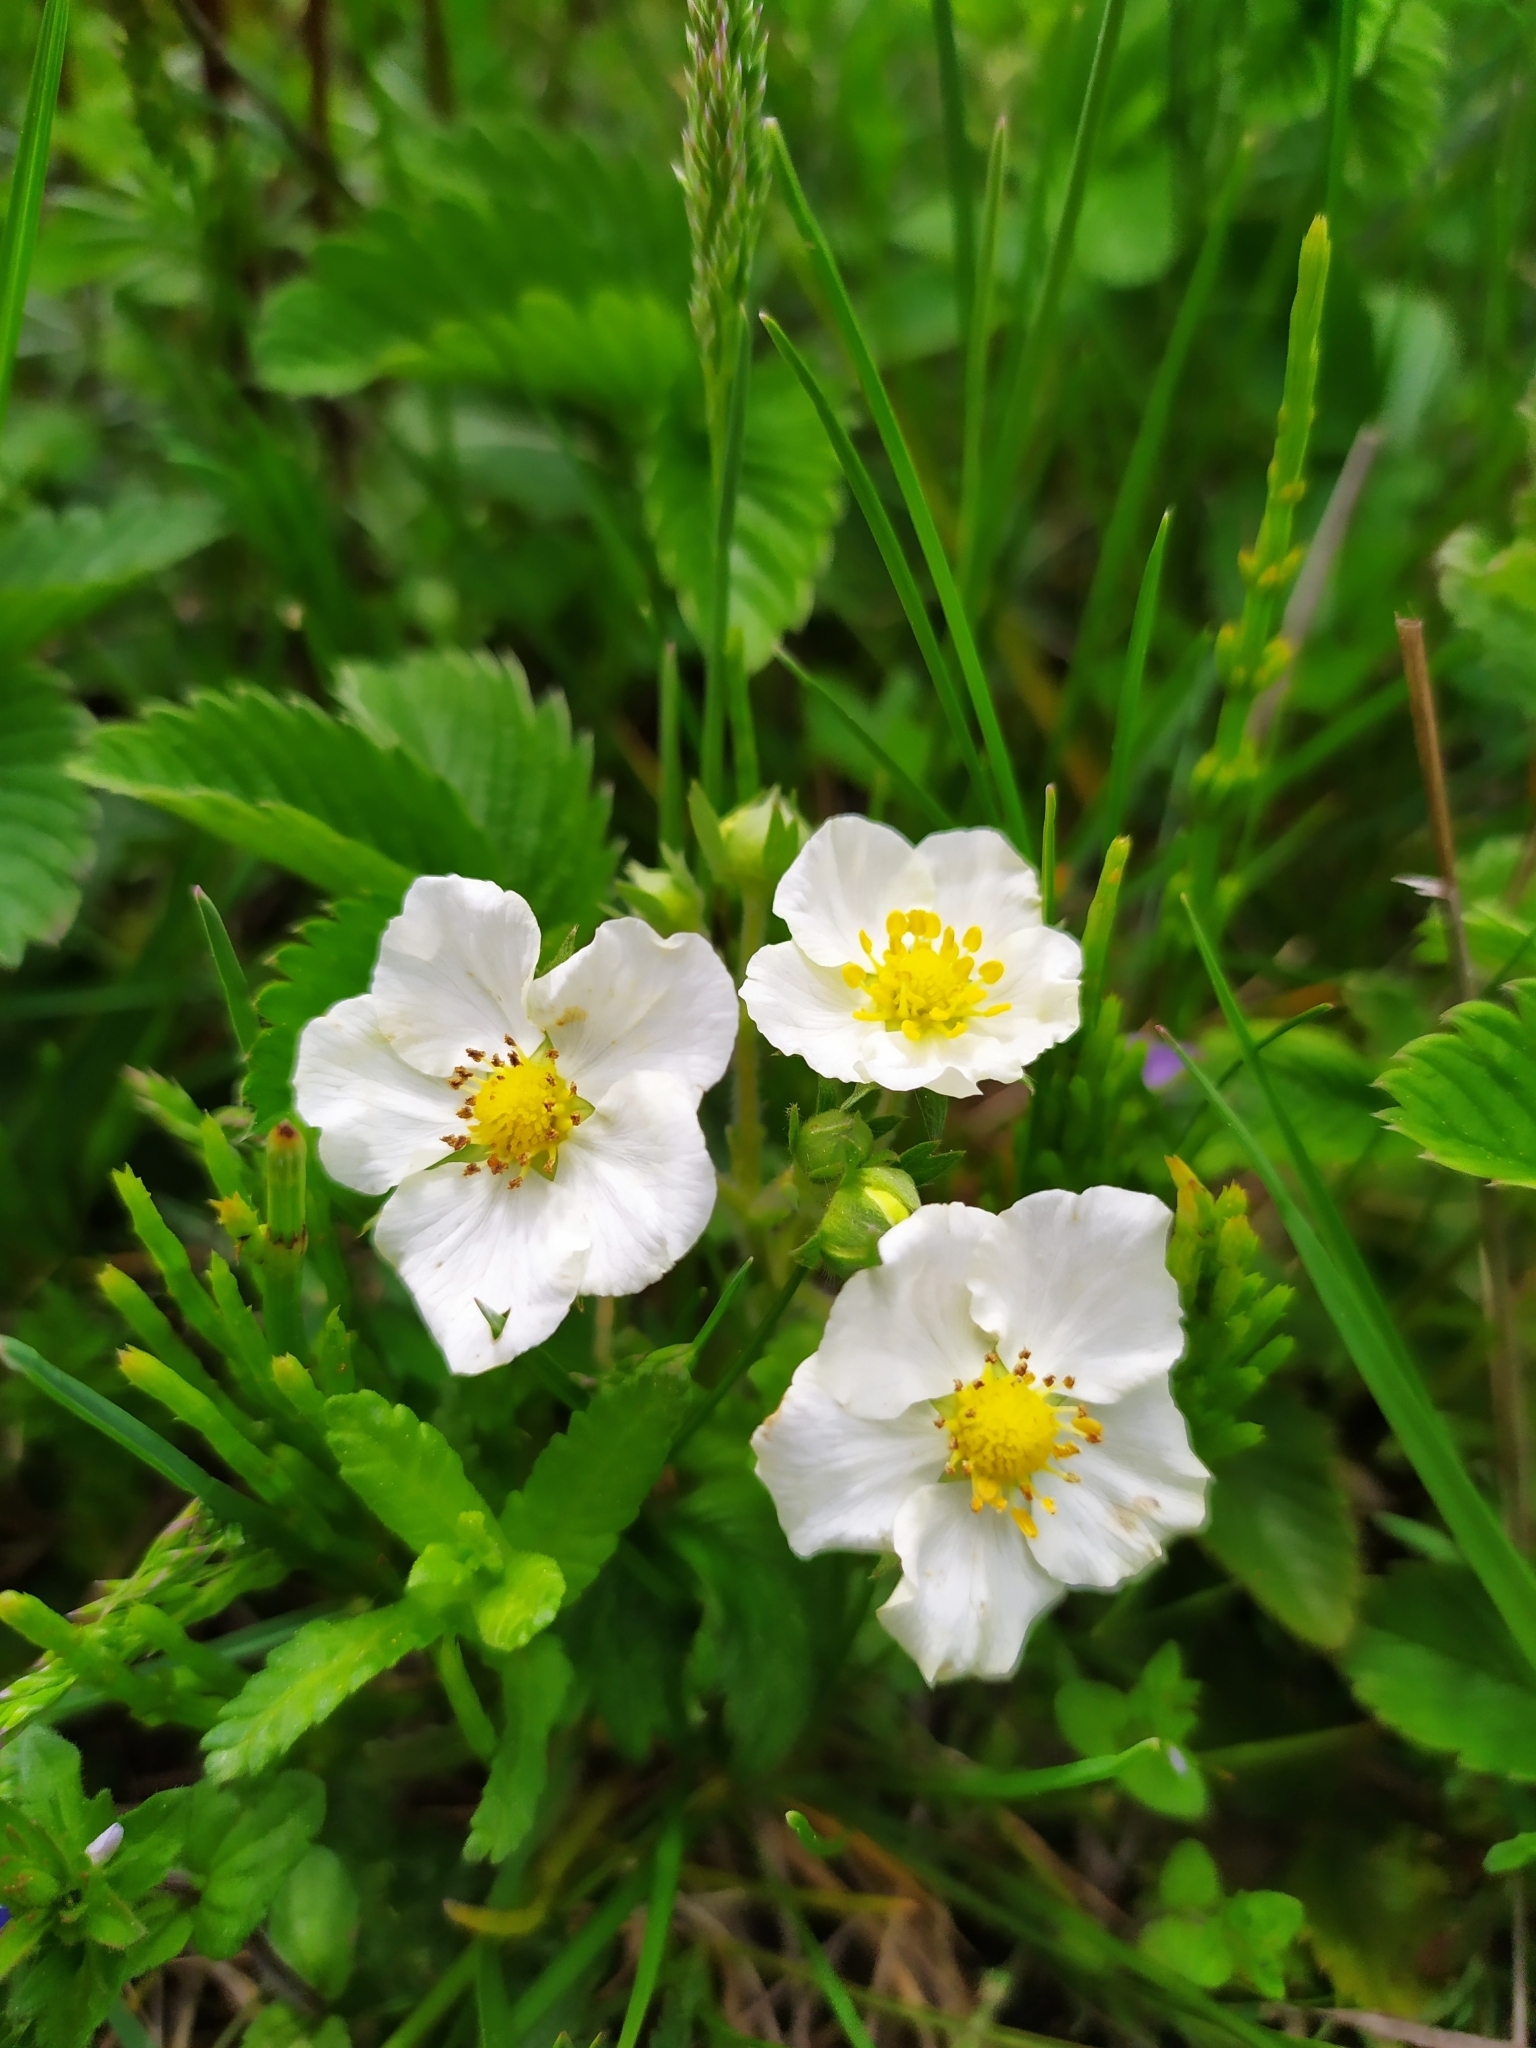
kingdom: Plantae
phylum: Tracheophyta
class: Magnoliopsida
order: Rosales
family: Rosaceae
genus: Fragaria
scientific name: Fragaria viridis
